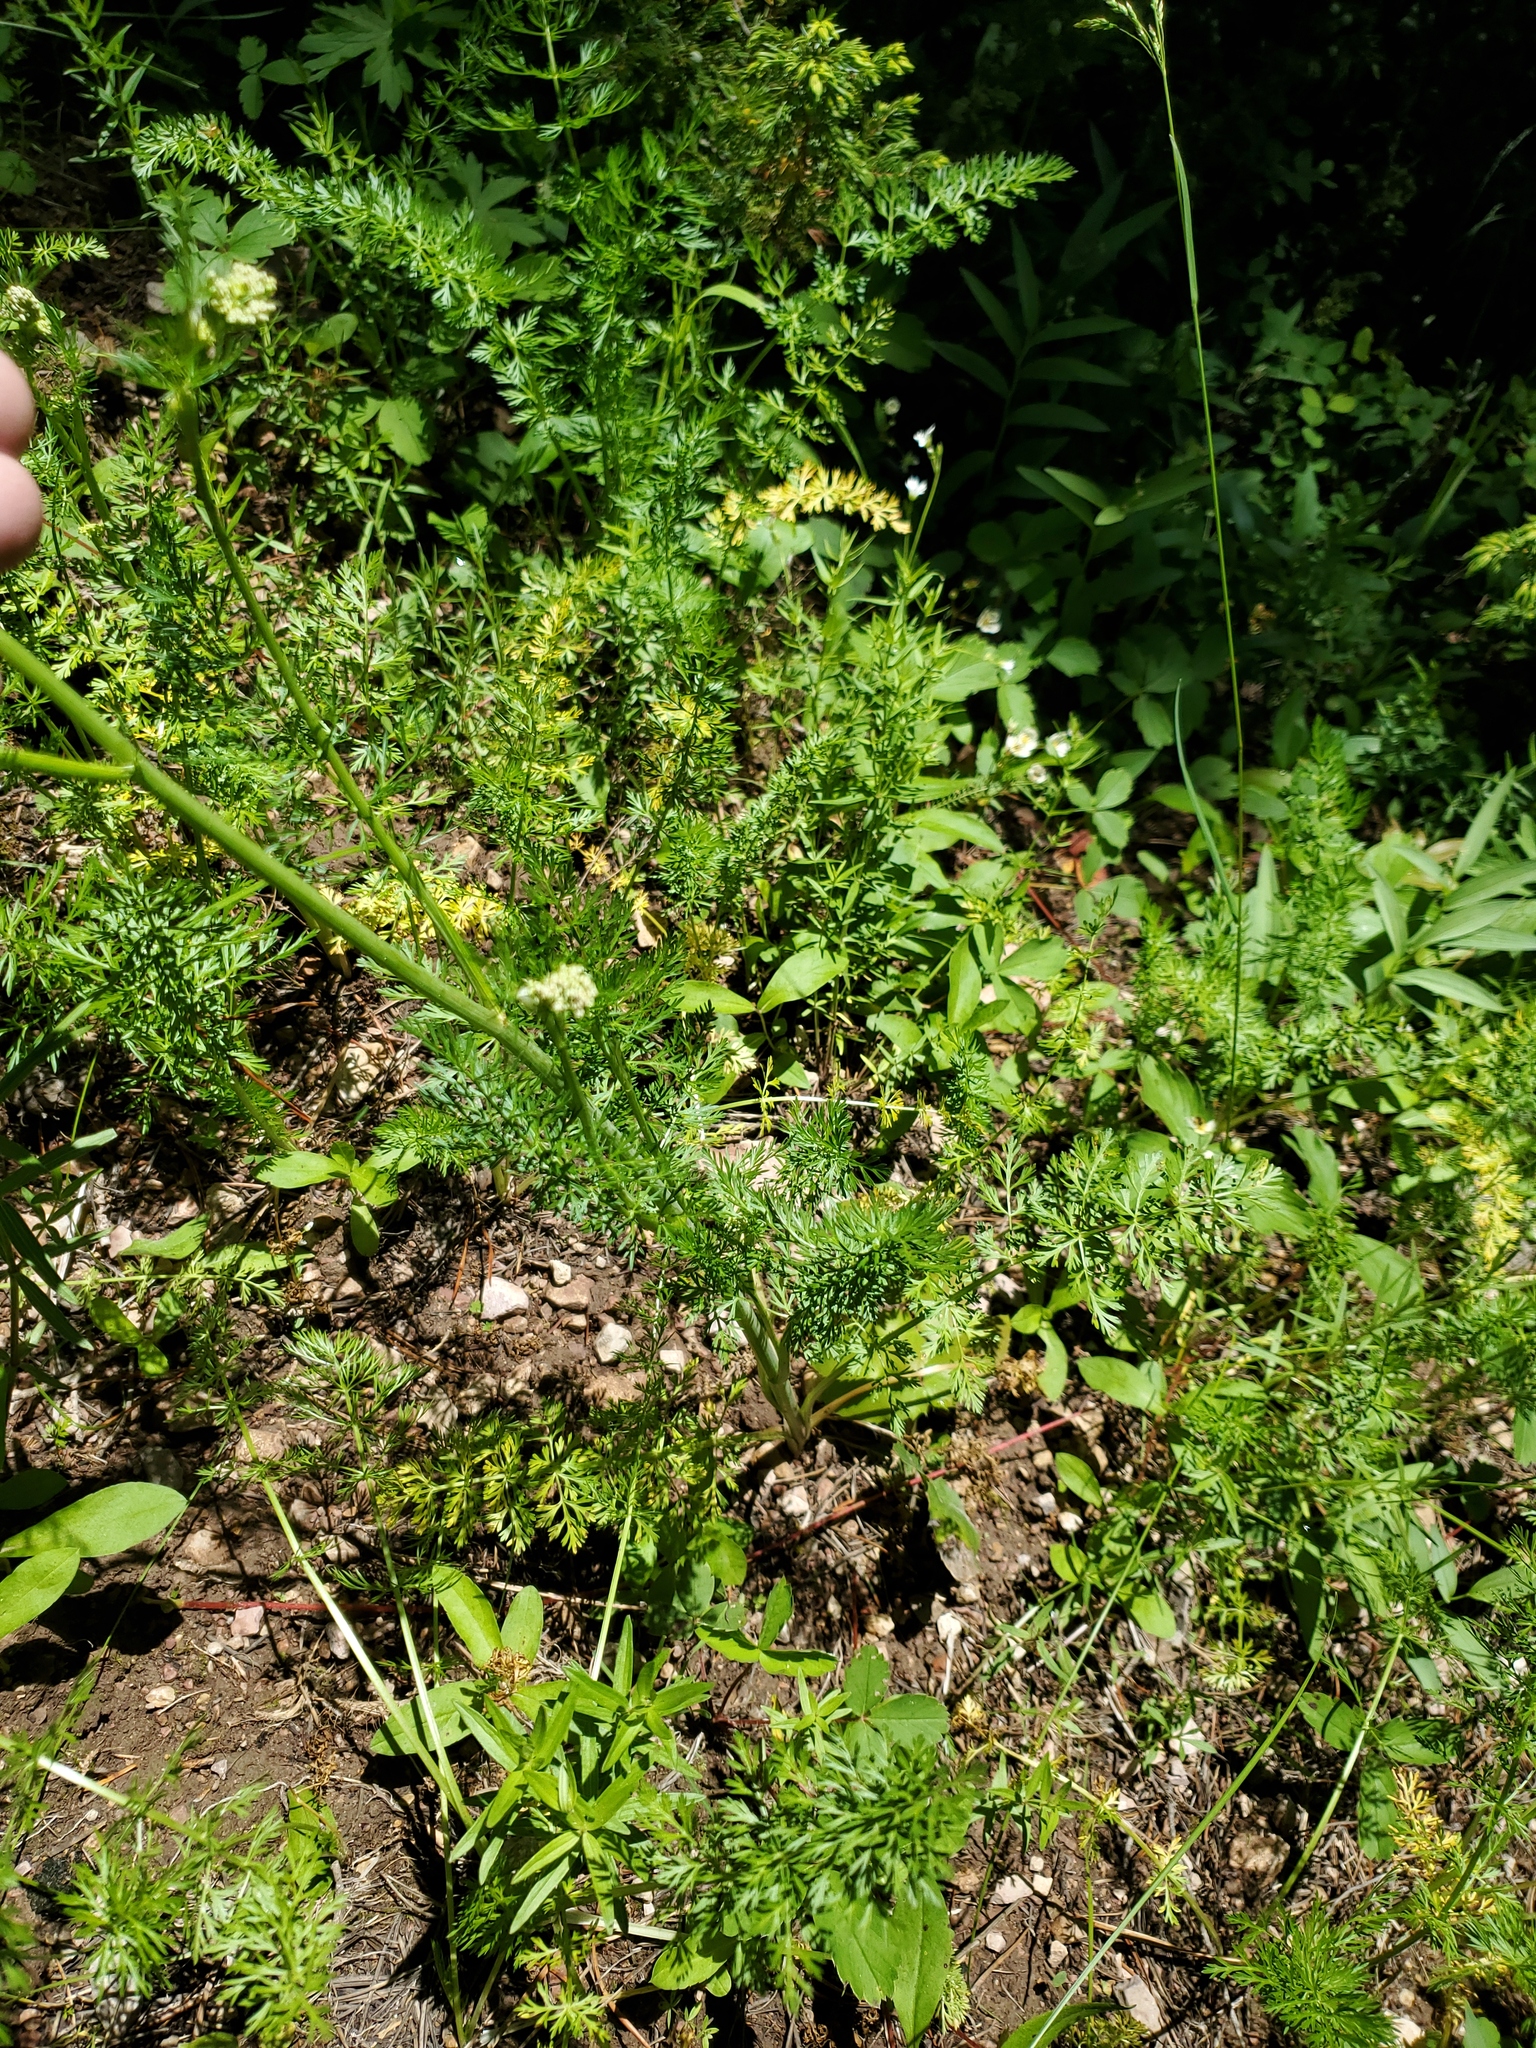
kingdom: Plantae
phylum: Tracheophyta
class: Magnoliopsida
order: Apiales
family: Apiaceae
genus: Carum
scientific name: Carum carvi
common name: Caraway
